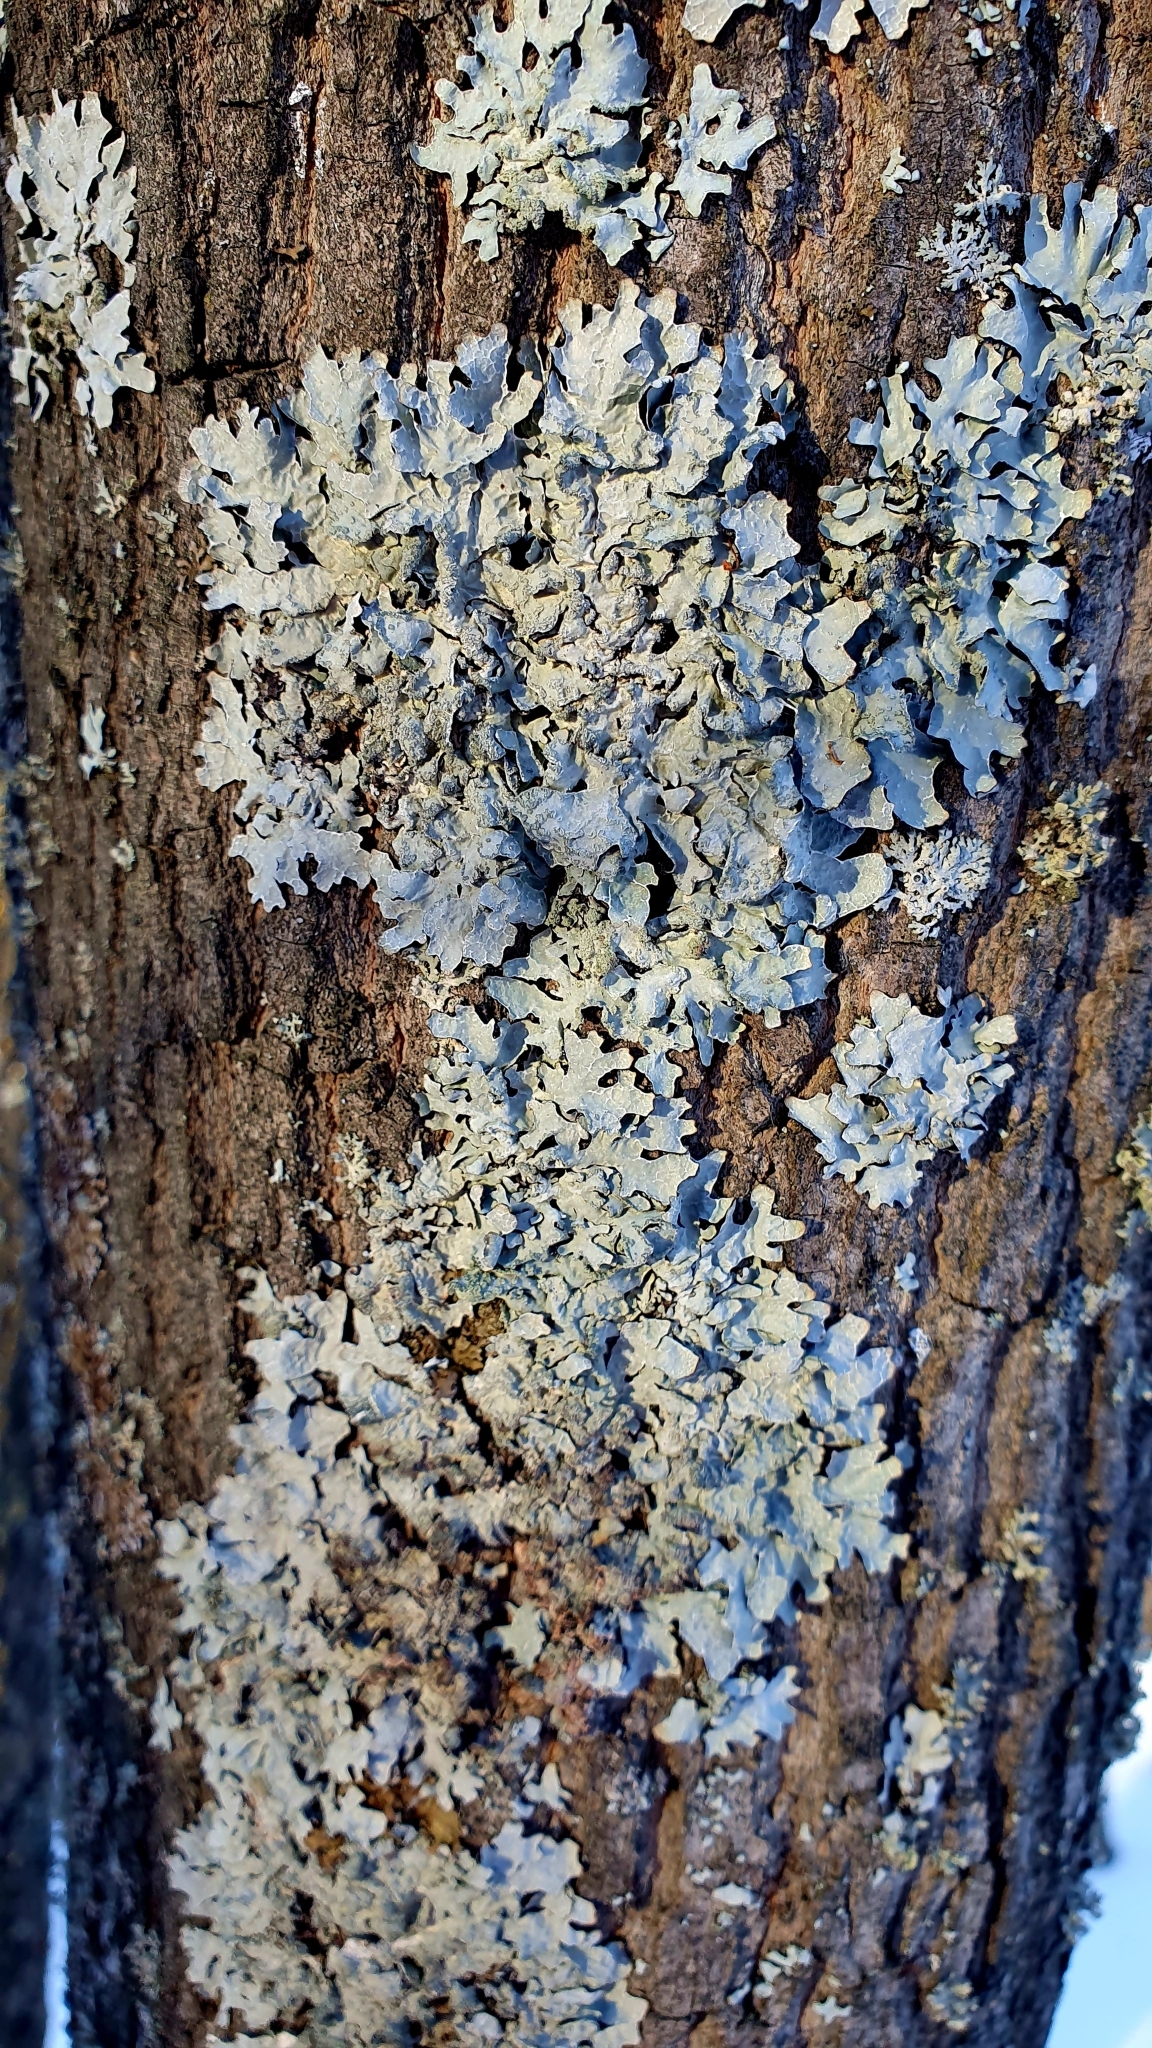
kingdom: Fungi
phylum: Ascomycota
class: Lecanoromycetes
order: Lecanorales
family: Parmeliaceae
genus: Parmelia
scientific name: Parmelia sulcata
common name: Netted shield lichen
